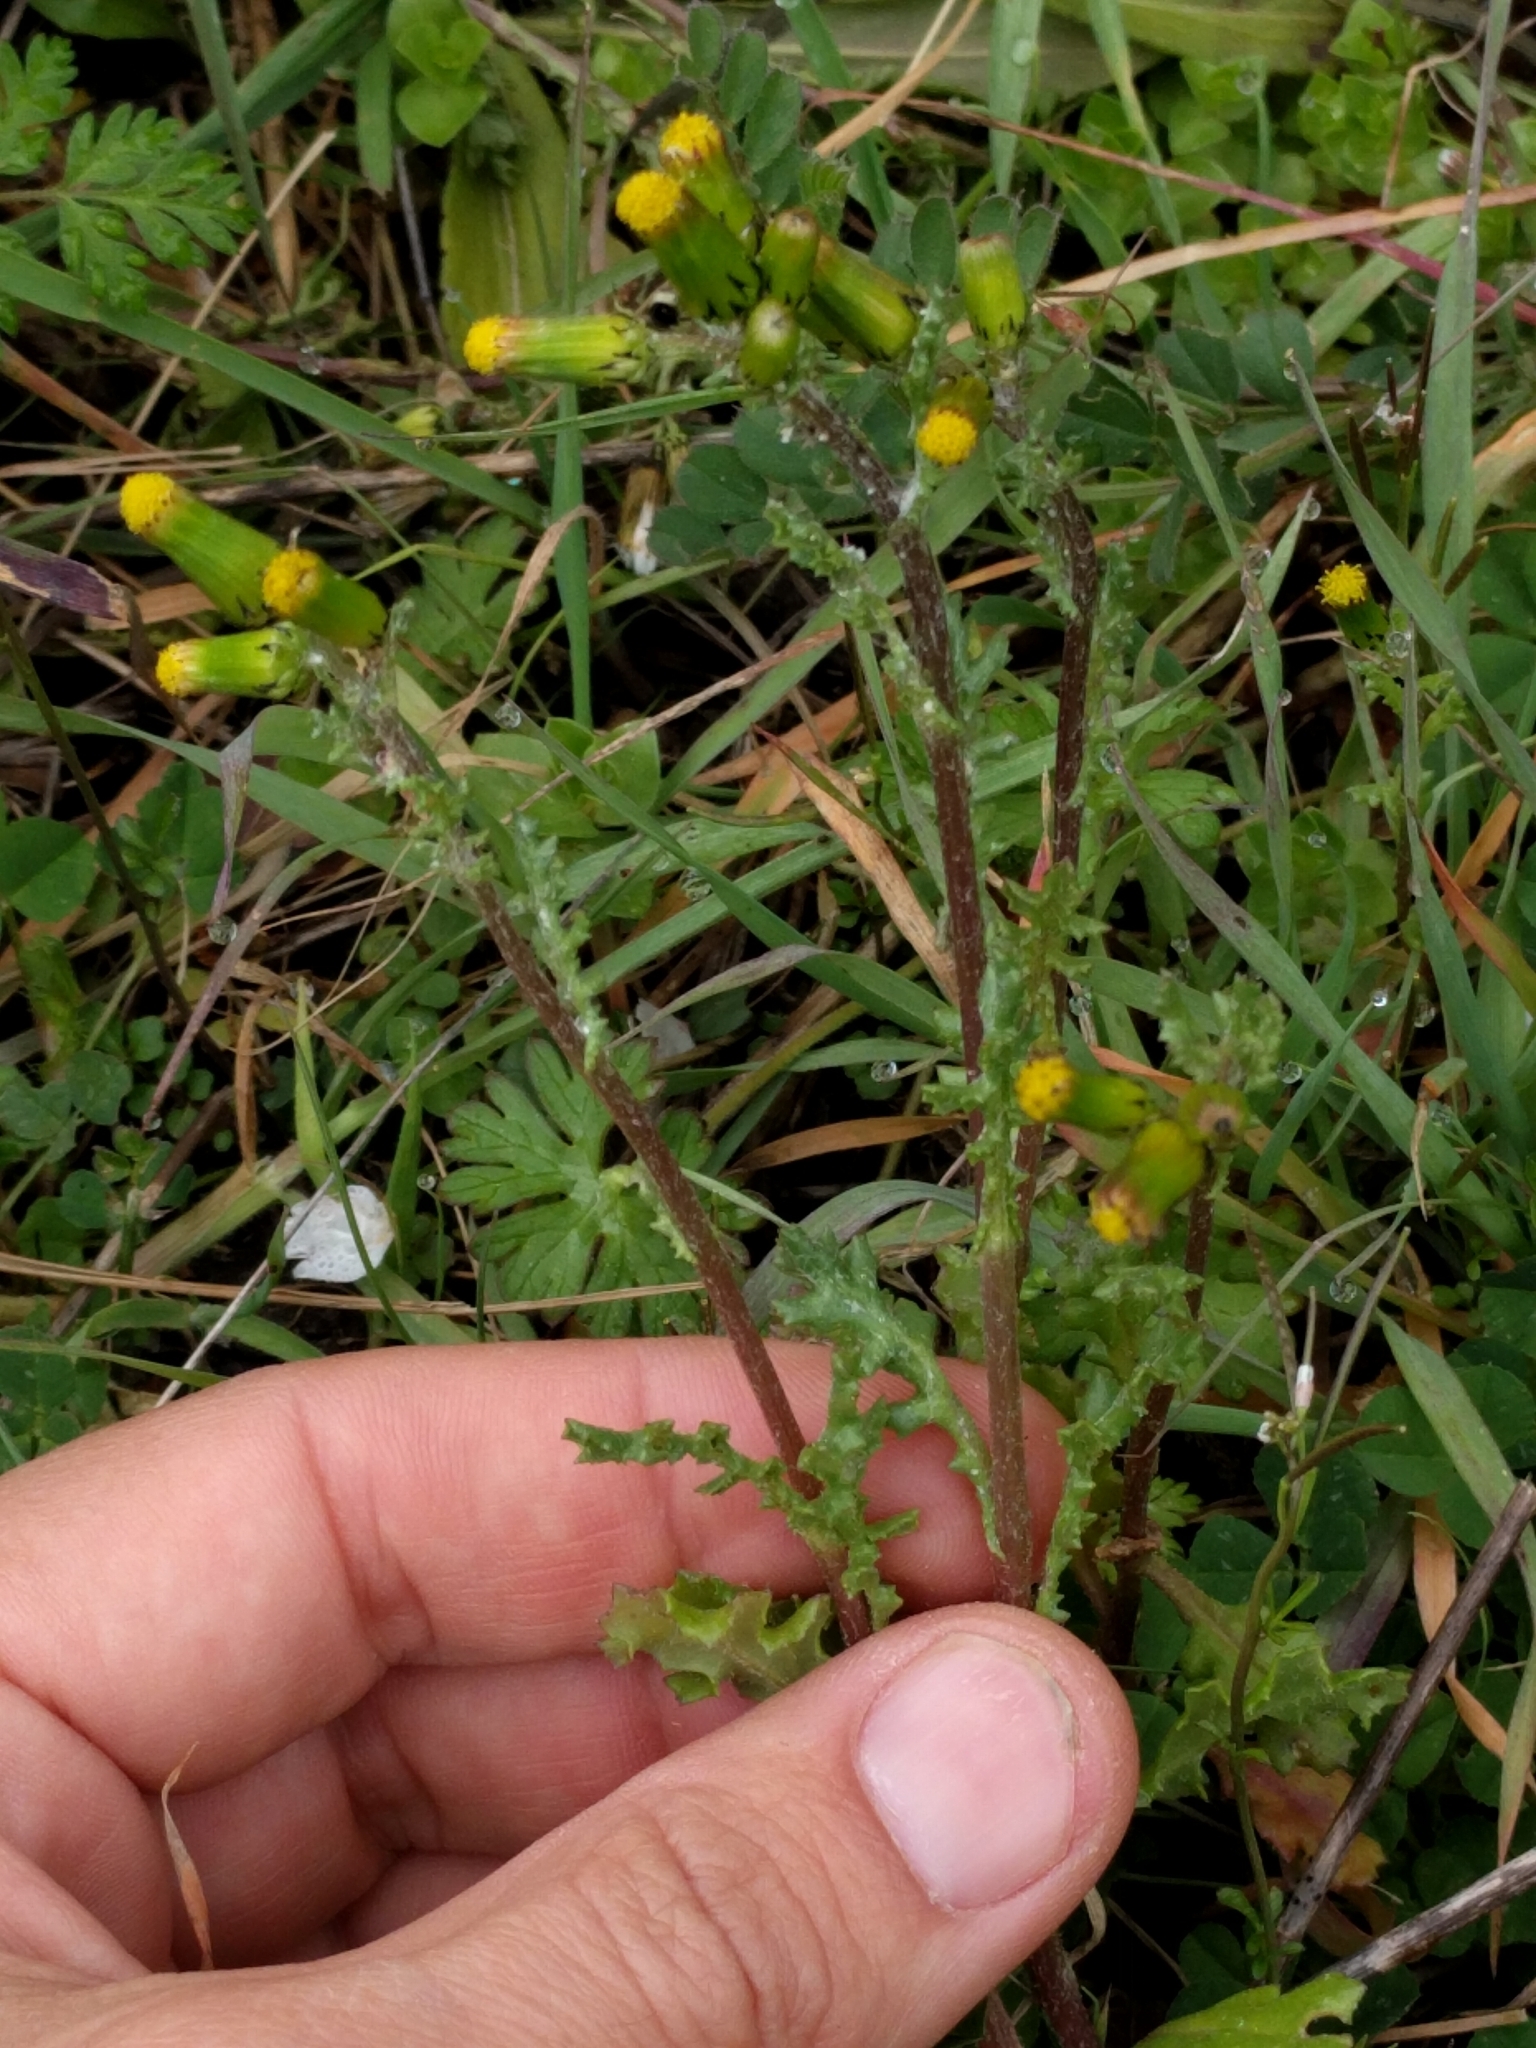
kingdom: Plantae
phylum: Tracheophyta
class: Magnoliopsida
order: Asterales
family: Asteraceae
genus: Senecio
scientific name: Senecio vulgaris
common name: Old-man-in-the-spring
